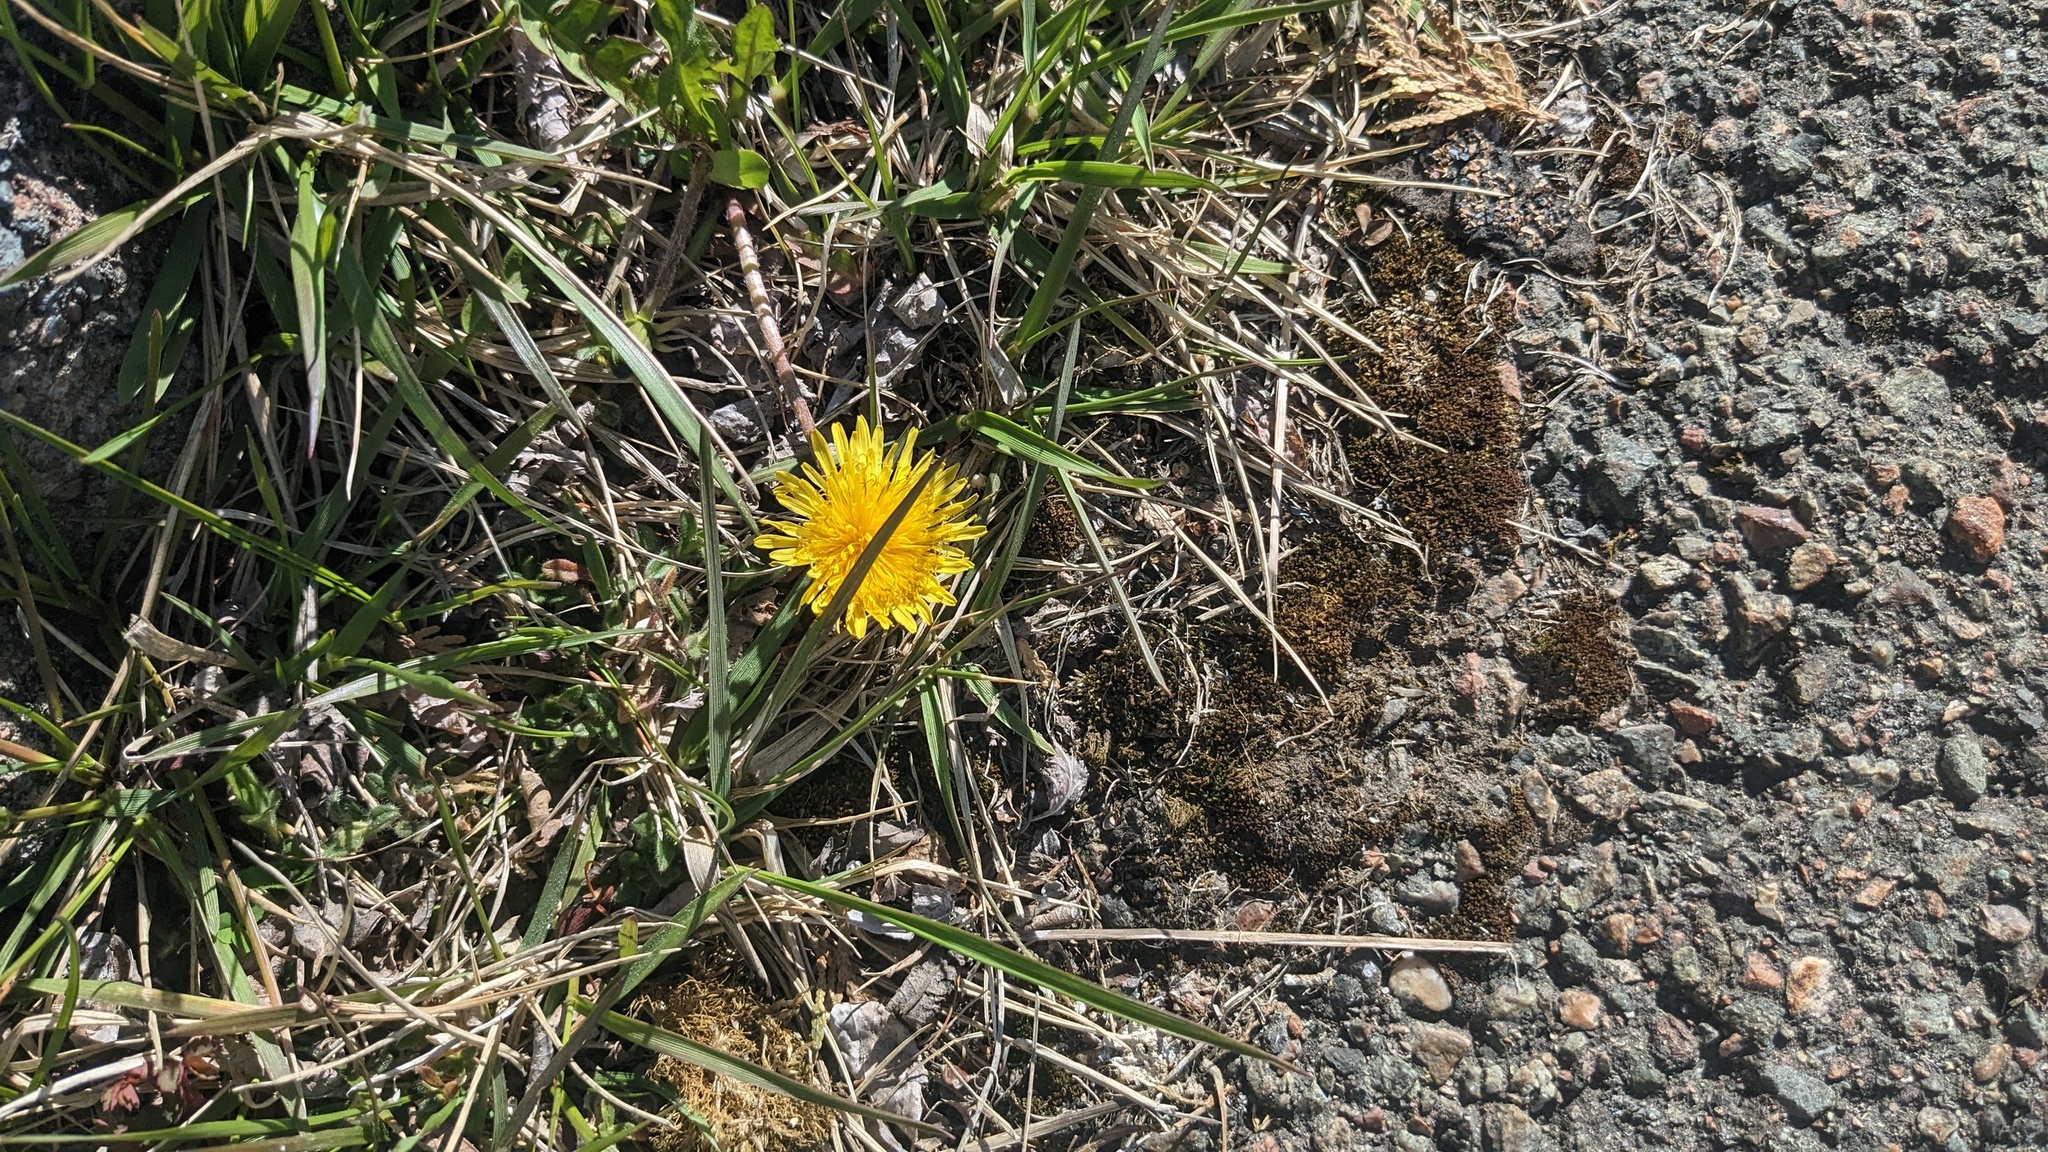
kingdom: Plantae
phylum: Tracheophyta
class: Magnoliopsida
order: Asterales
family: Asteraceae
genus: Taraxacum
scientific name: Taraxacum officinale
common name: Common dandelion
